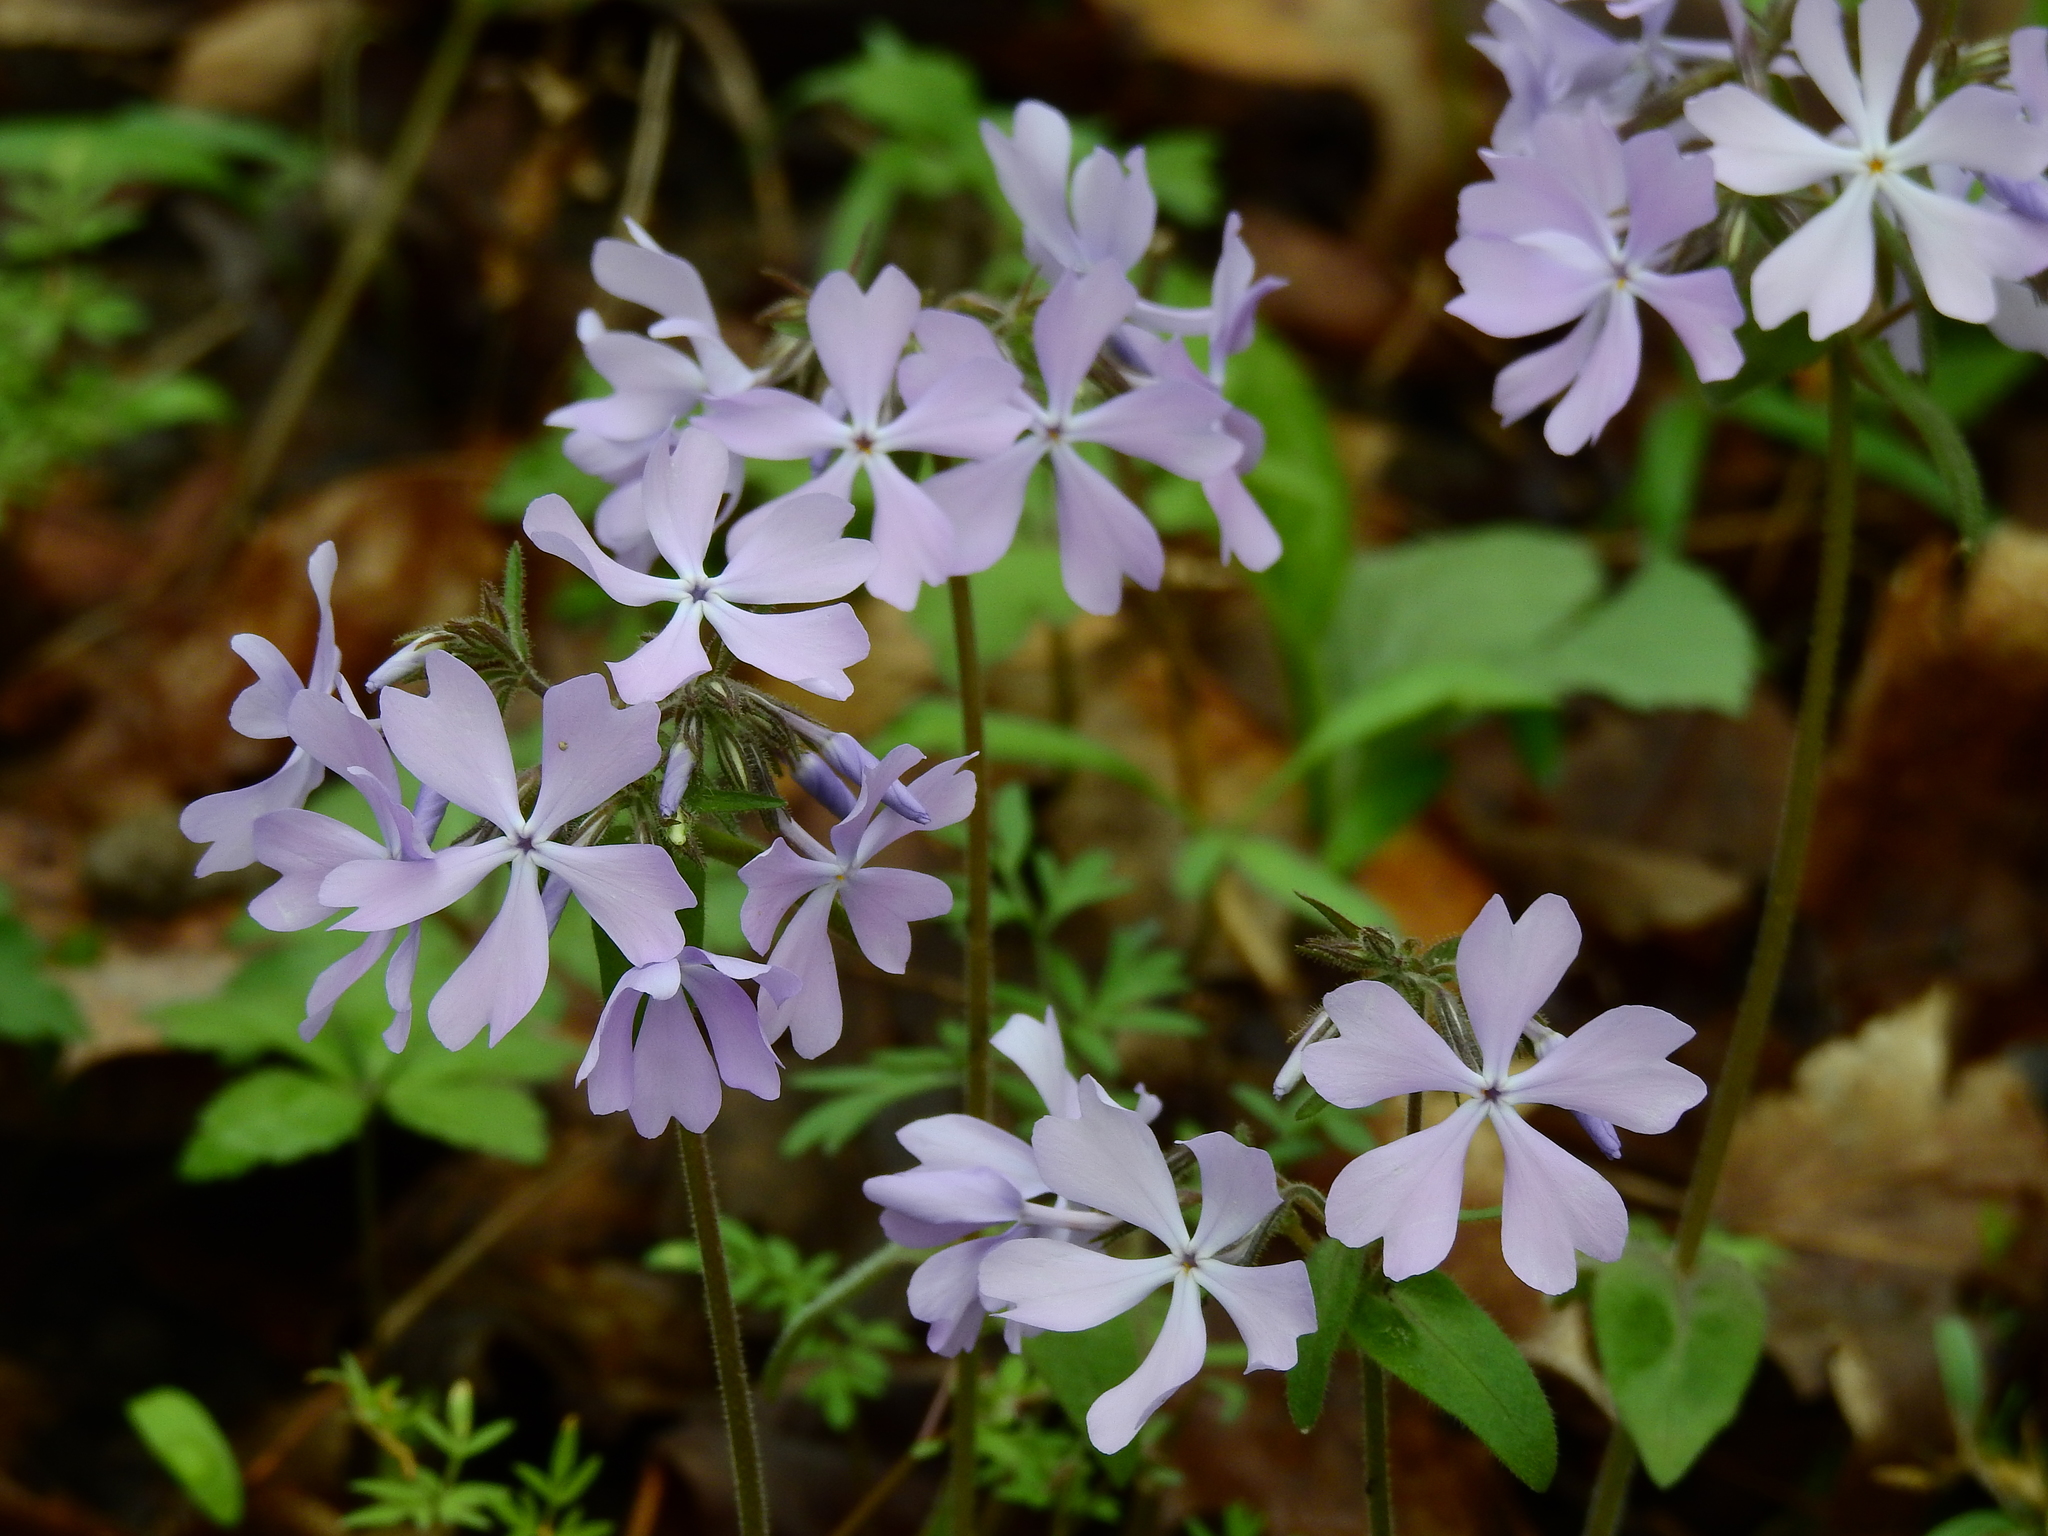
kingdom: Plantae
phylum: Tracheophyta
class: Magnoliopsida
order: Ericales
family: Polemoniaceae
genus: Phlox
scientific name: Phlox divaricata
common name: Blue phlox
